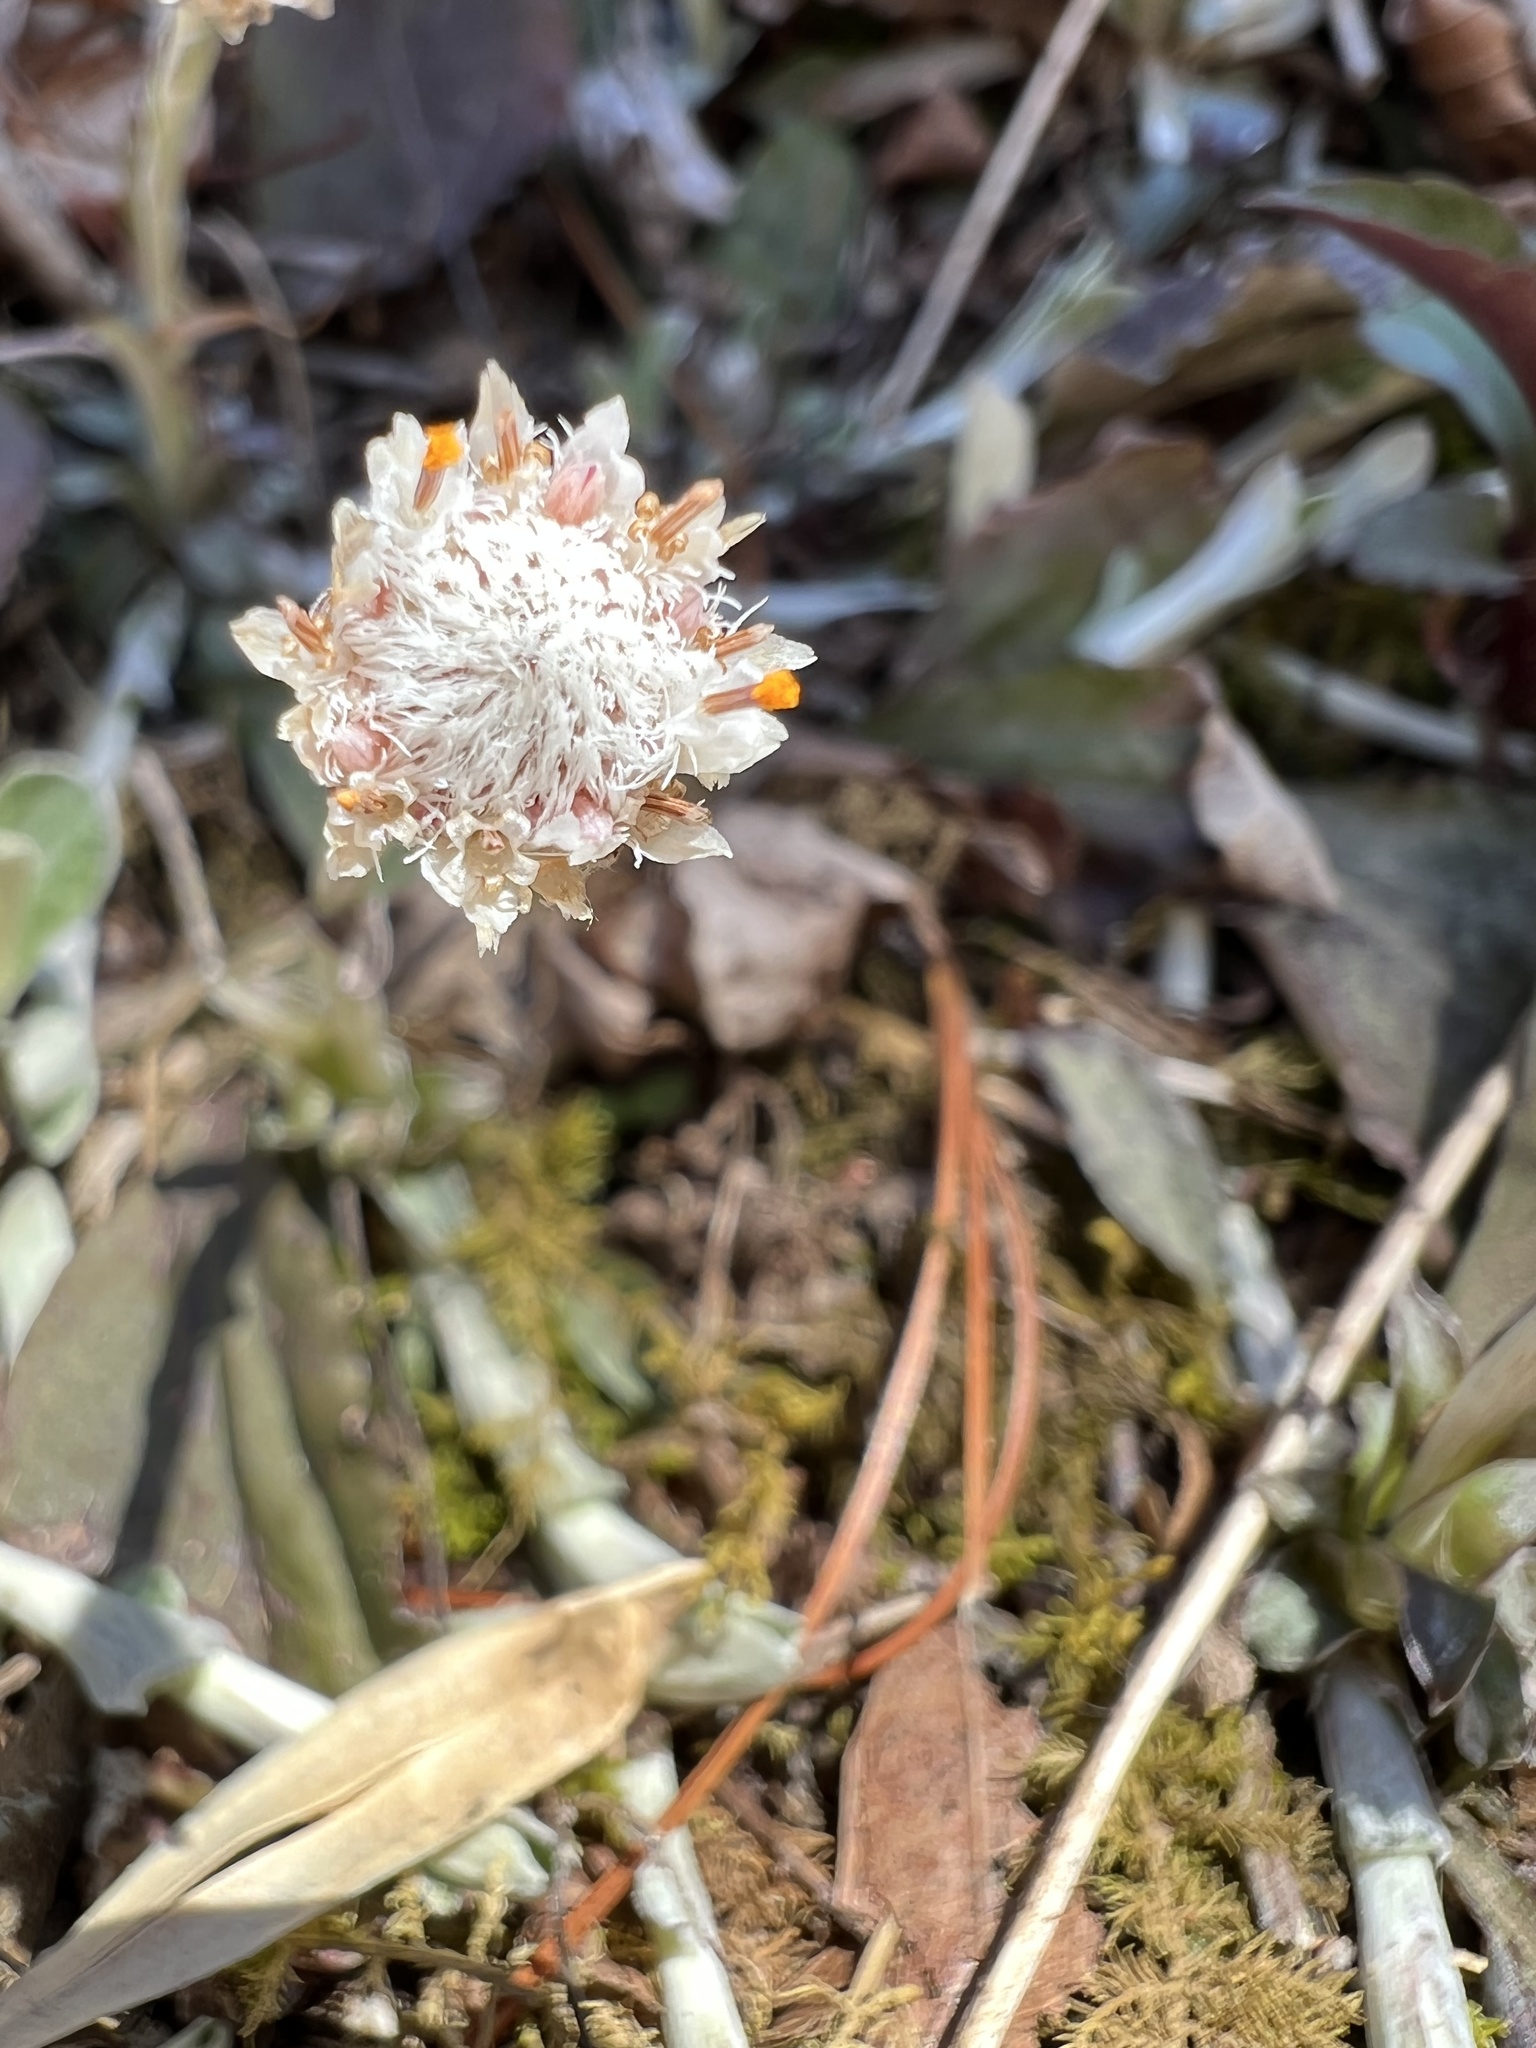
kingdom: Plantae
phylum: Tracheophyta
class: Magnoliopsida
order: Asterales
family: Asteraceae
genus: Antennaria
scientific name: Antennaria solitaria
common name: Single-head pussytoes
